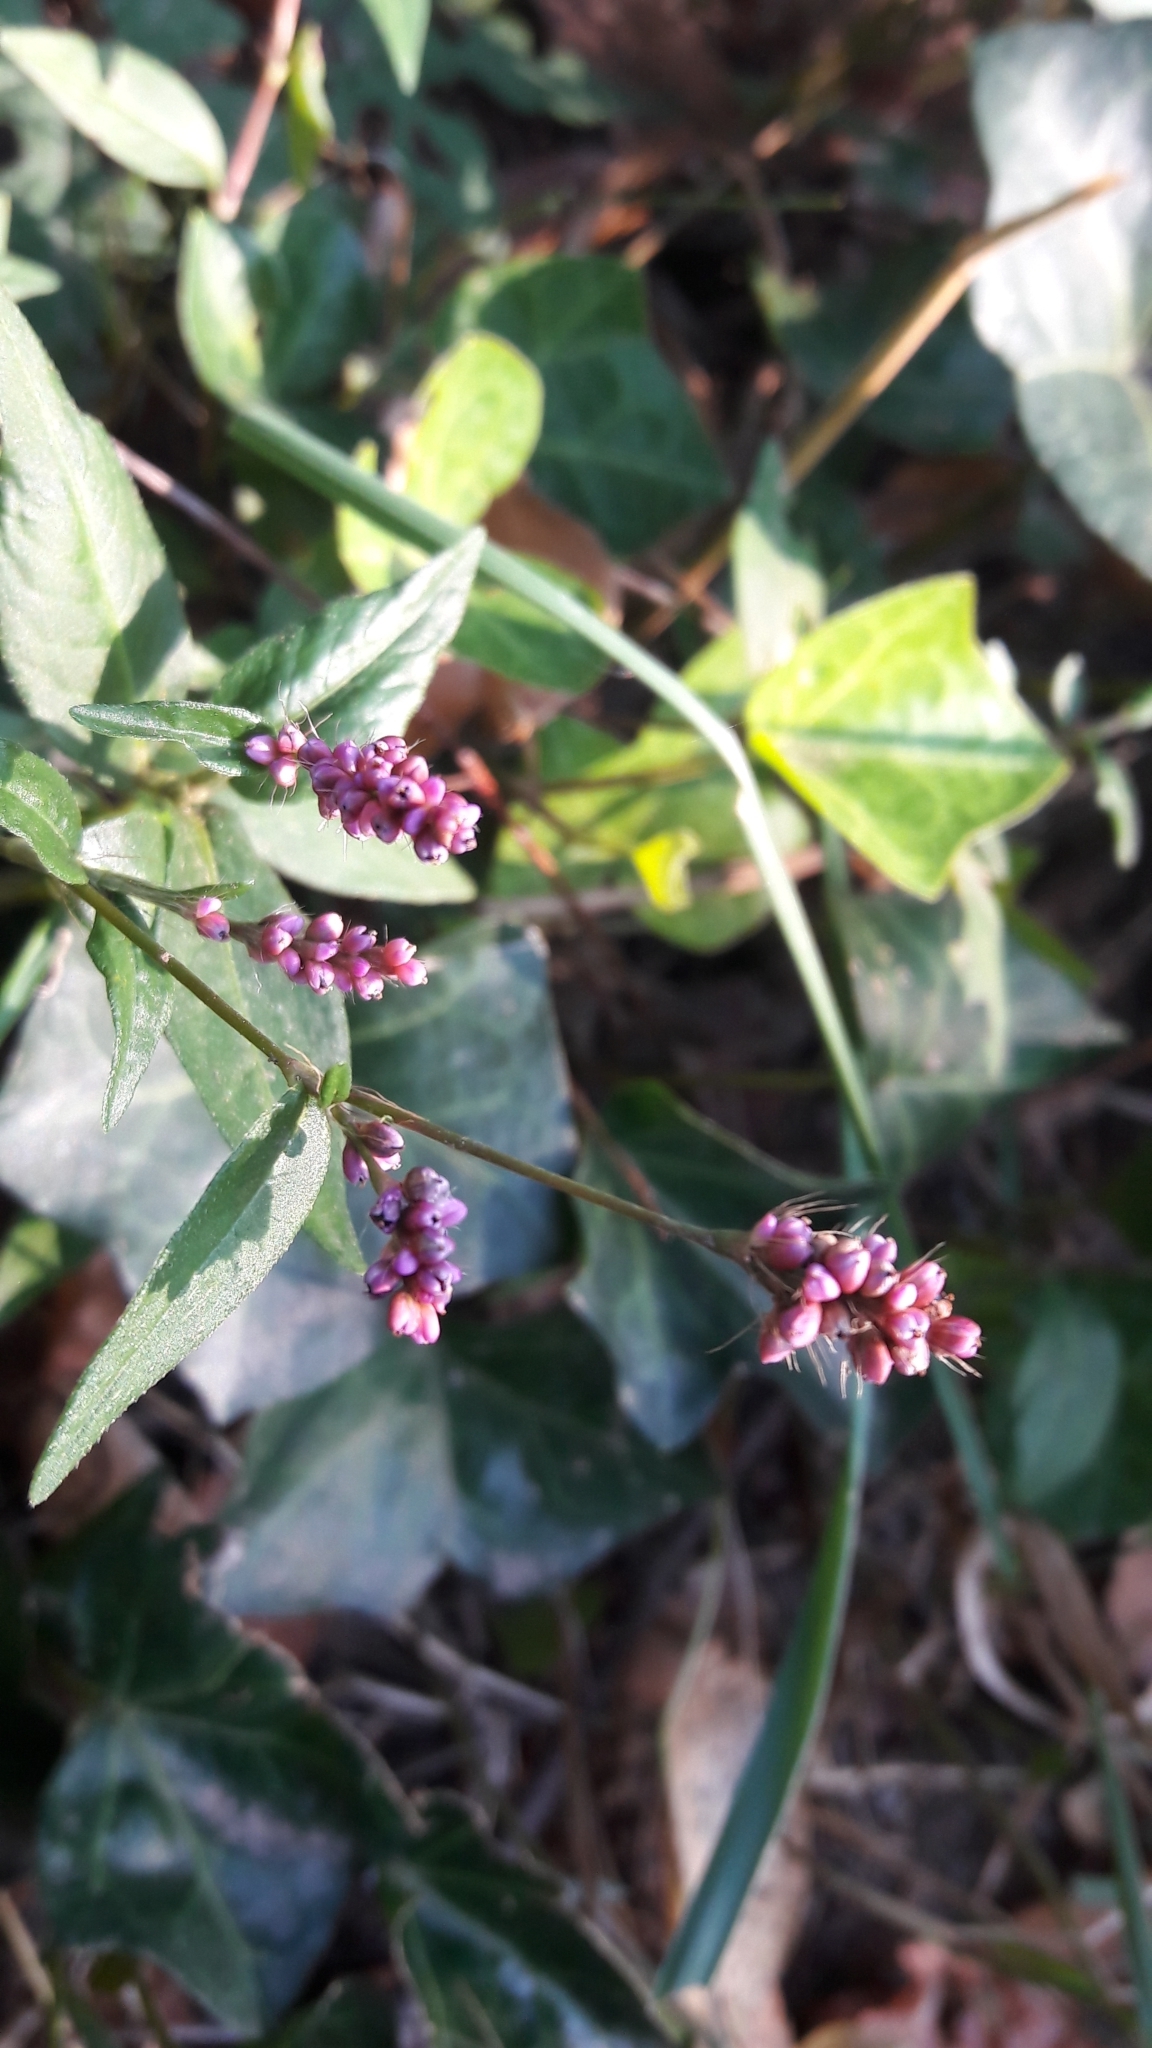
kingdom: Plantae
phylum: Tracheophyta
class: Magnoliopsida
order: Caryophyllales
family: Polygonaceae
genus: Persicaria
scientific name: Persicaria longiseta
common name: Bristly lady's-thumb
